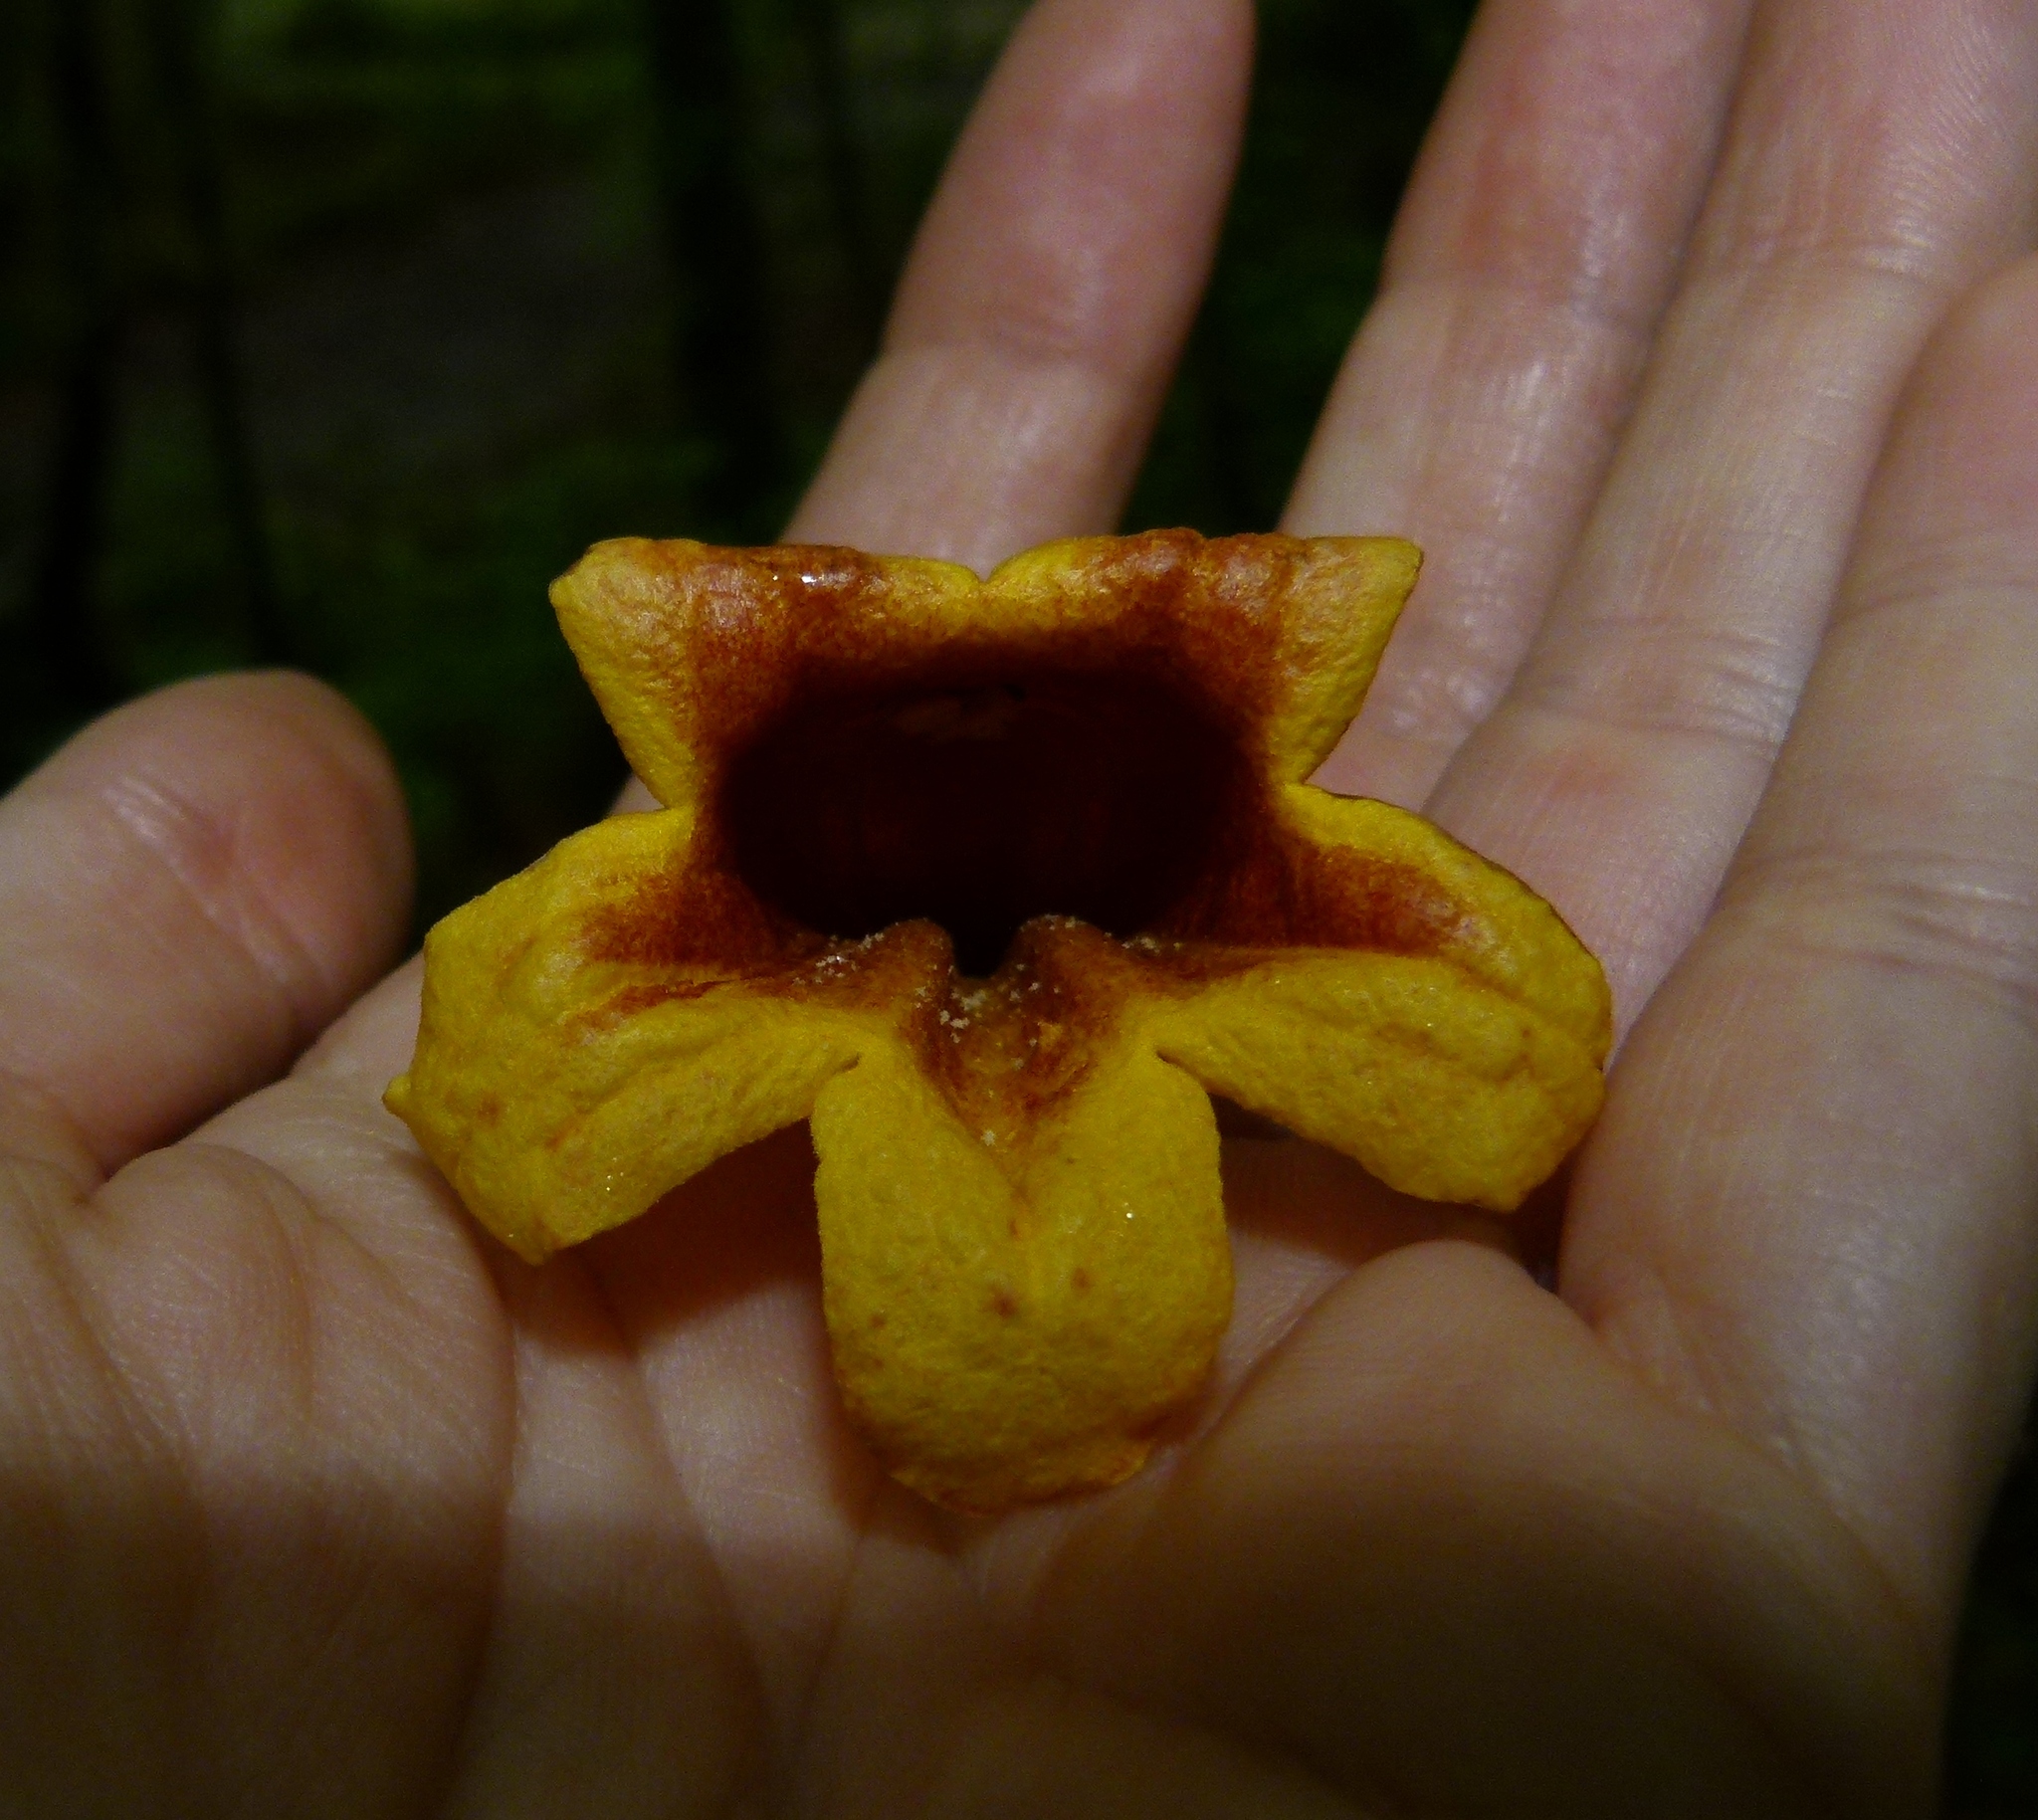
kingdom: Plantae
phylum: Tracheophyta
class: Magnoliopsida
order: Lamiales
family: Bignoniaceae
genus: Bignonia
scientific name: Bignonia capreolata
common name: Crossvine
